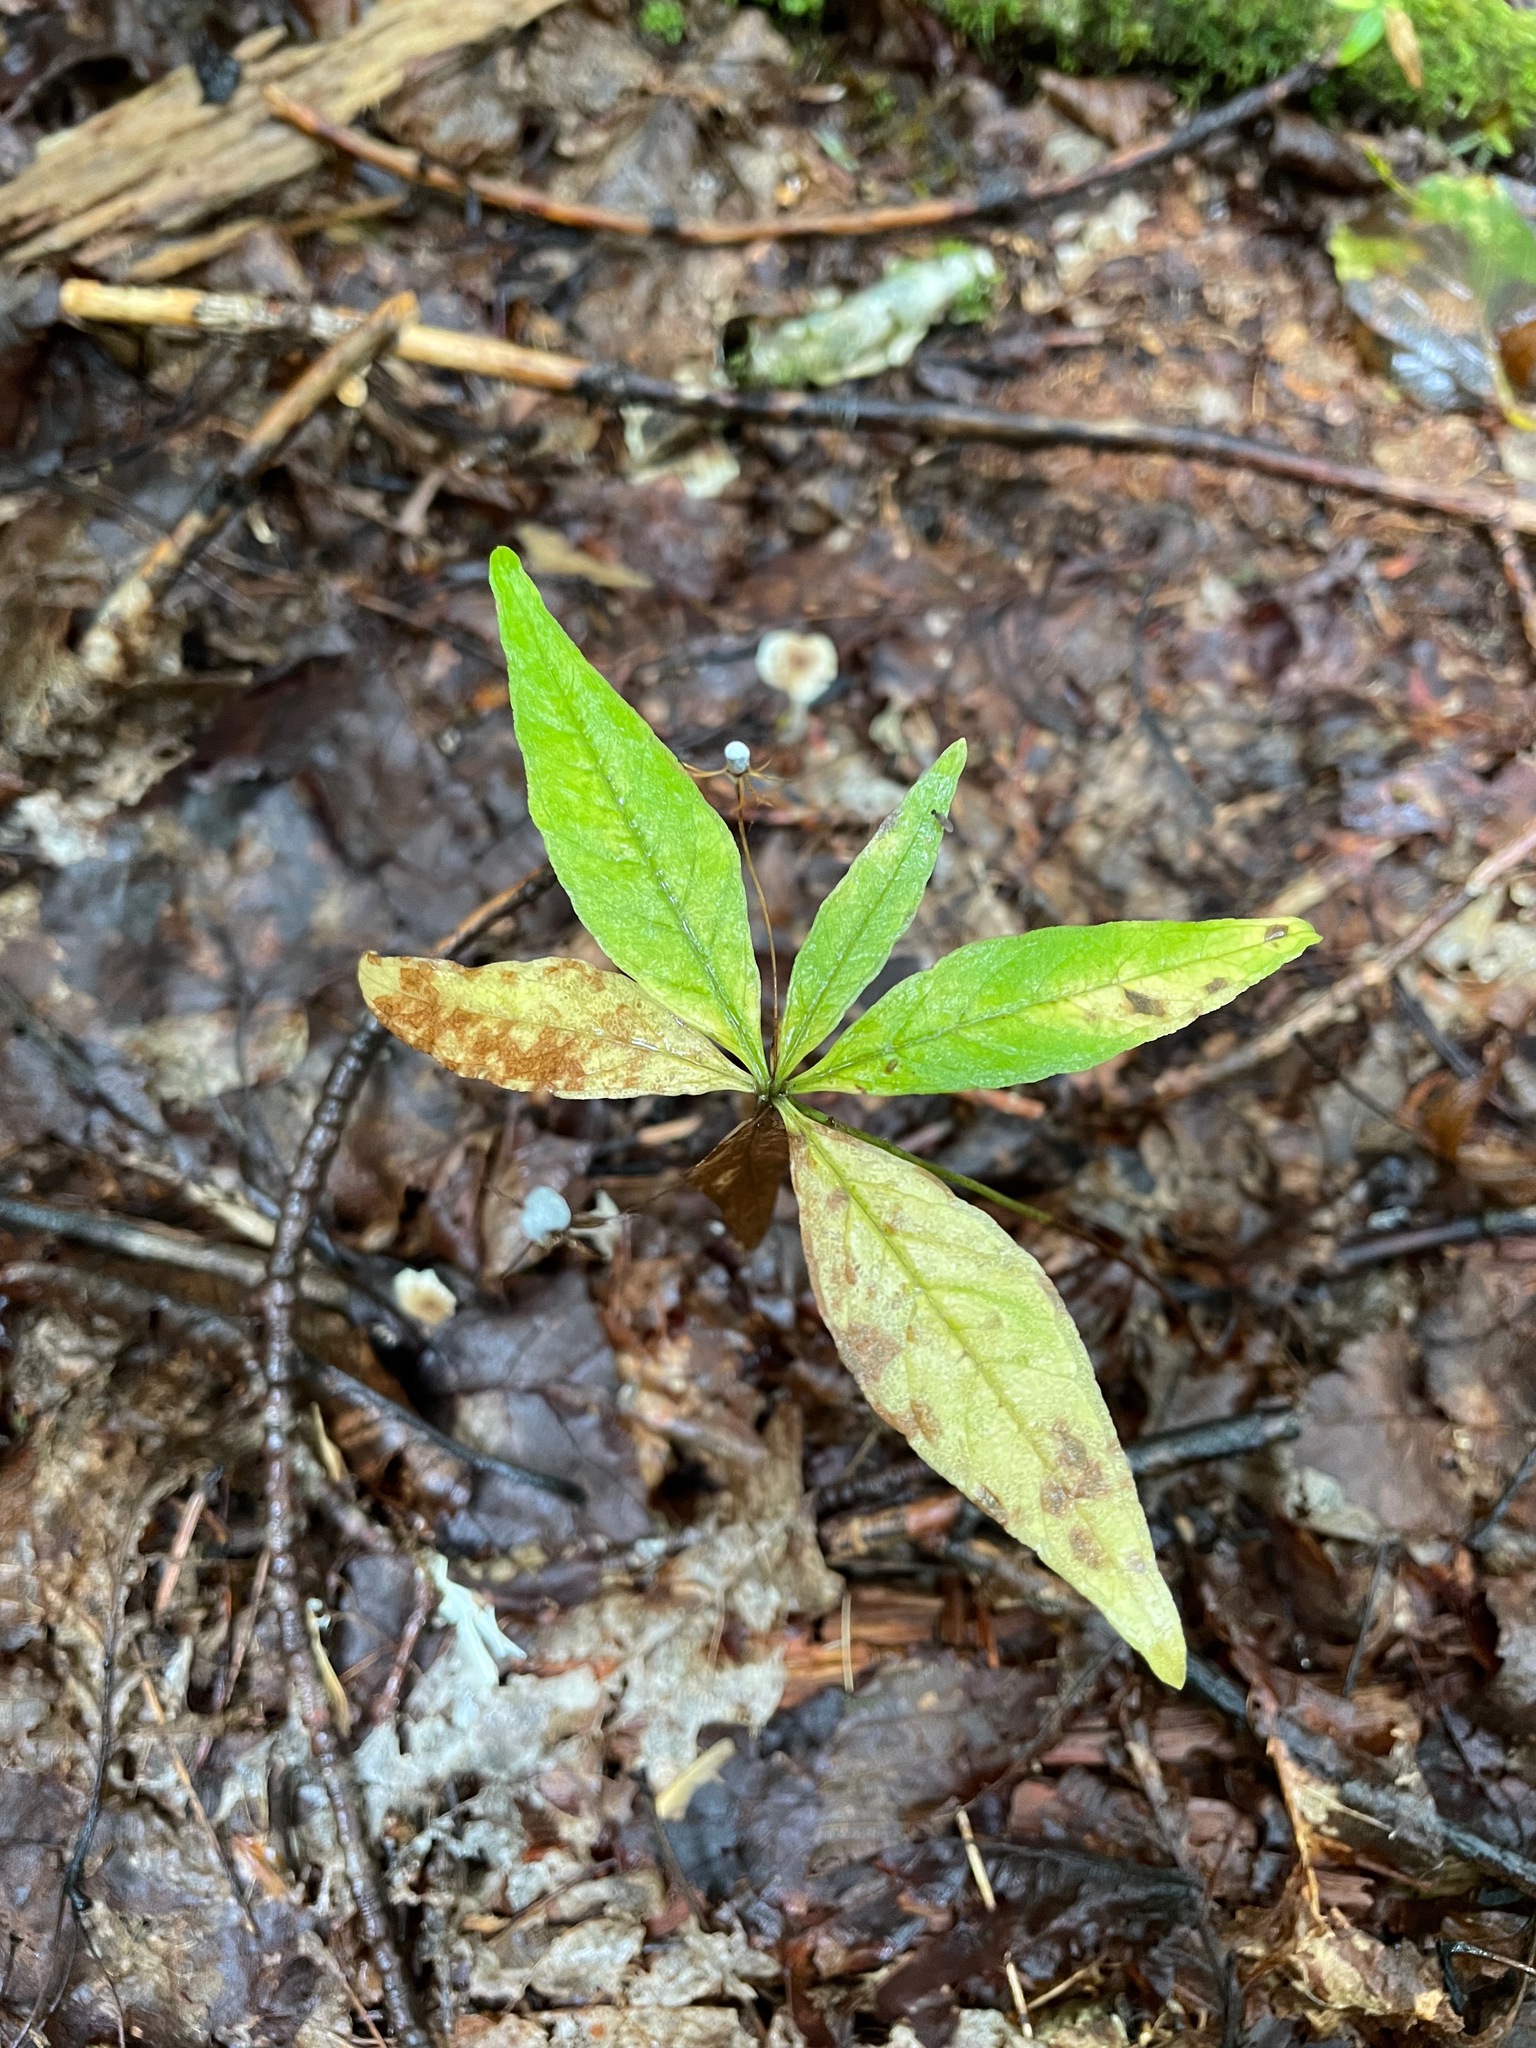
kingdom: Plantae
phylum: Tracheophyta
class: Magnoliopsida
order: Ericales
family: Primulaceae
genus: Lysimachia
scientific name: Lysimachia borealis
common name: American starflower
